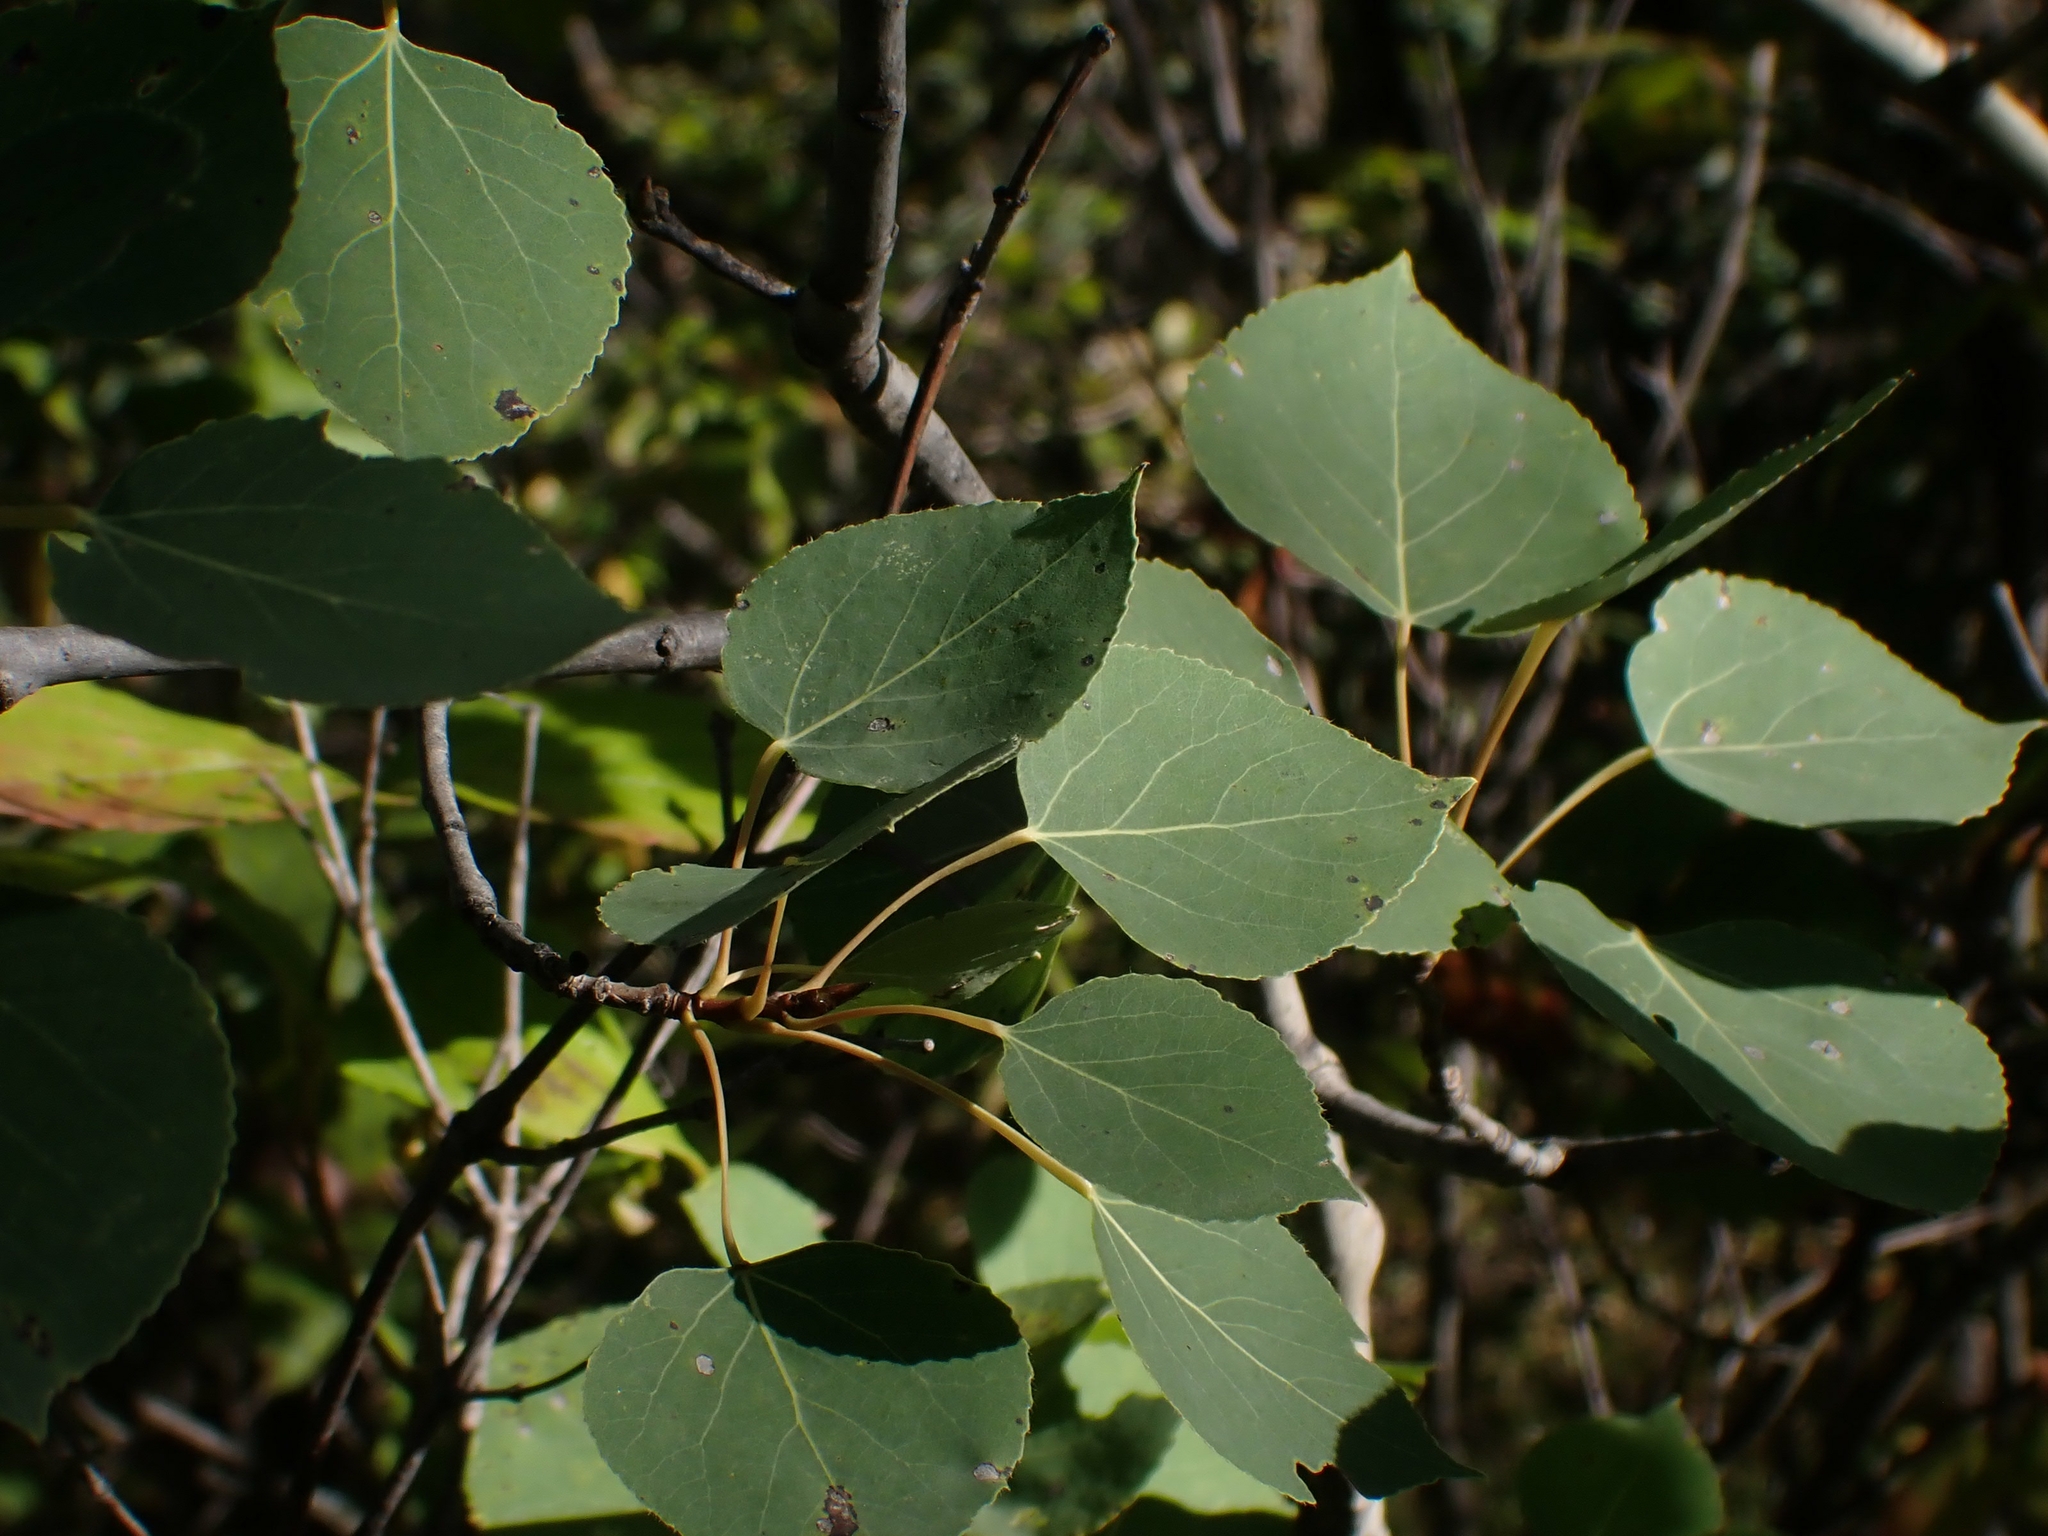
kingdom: Plantae
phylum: Tracheophyta
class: Magnoliopsida
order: Malpighiales
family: Salicaceae
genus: Populus
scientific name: Populus tremuloides
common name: Quaking aspen
